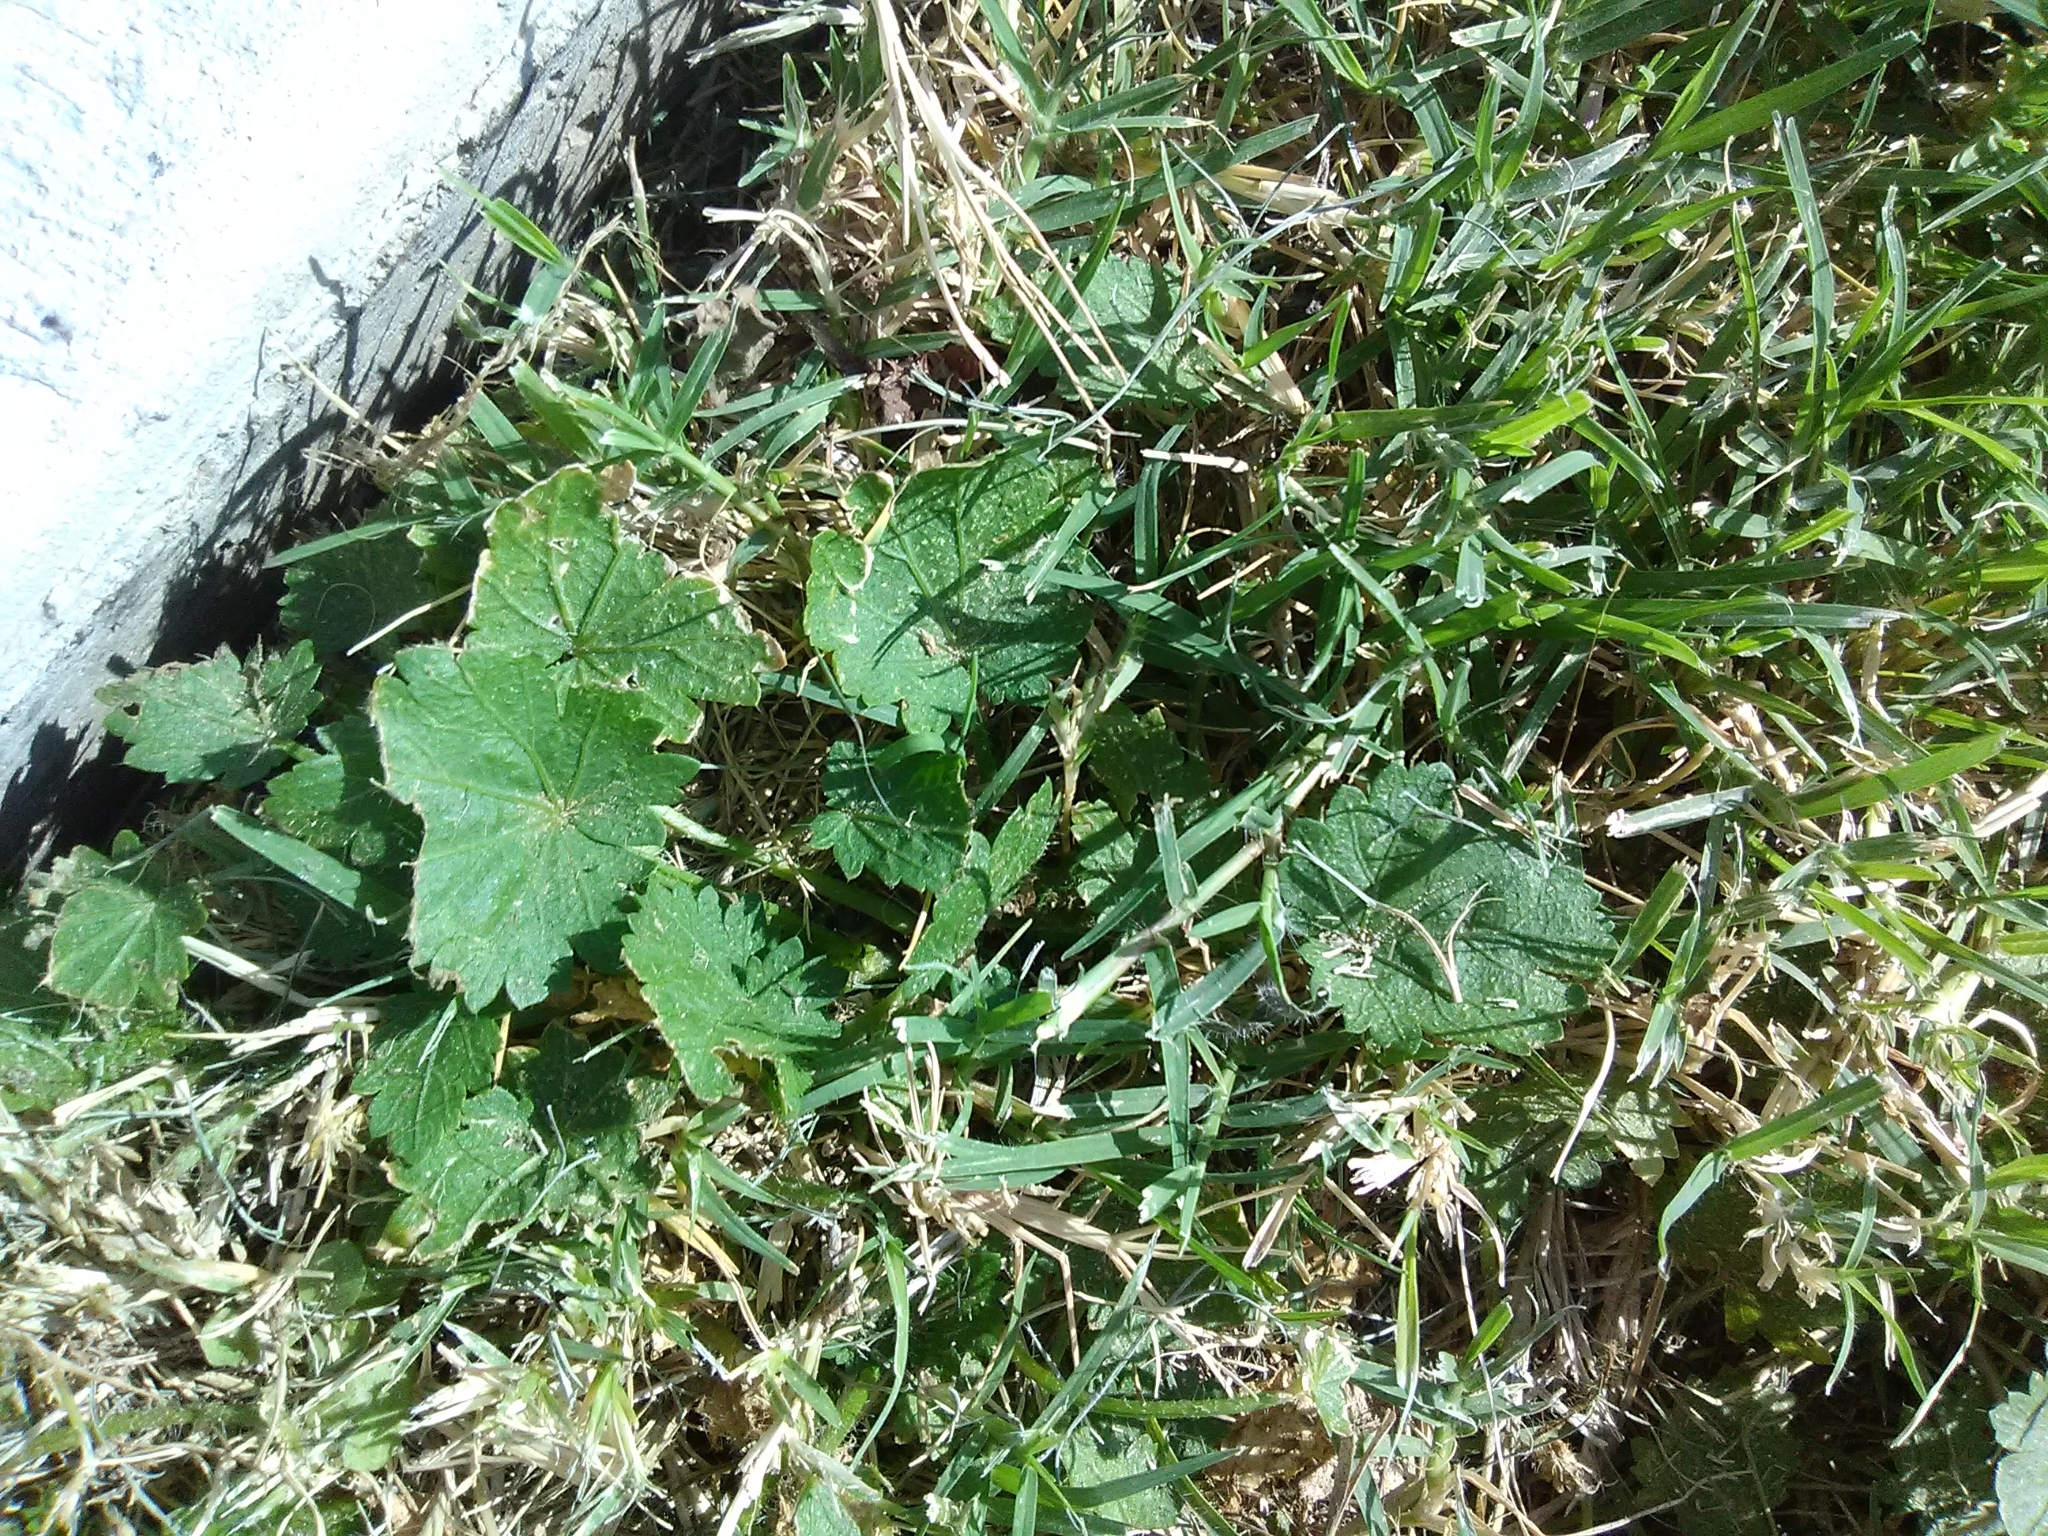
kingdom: Plantae
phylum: Tracheophyta
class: Magnoliopsida
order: Malvales
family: Malvaceae
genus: Modiola
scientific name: Modiola caroliniana
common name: Carolina bristlemallow
